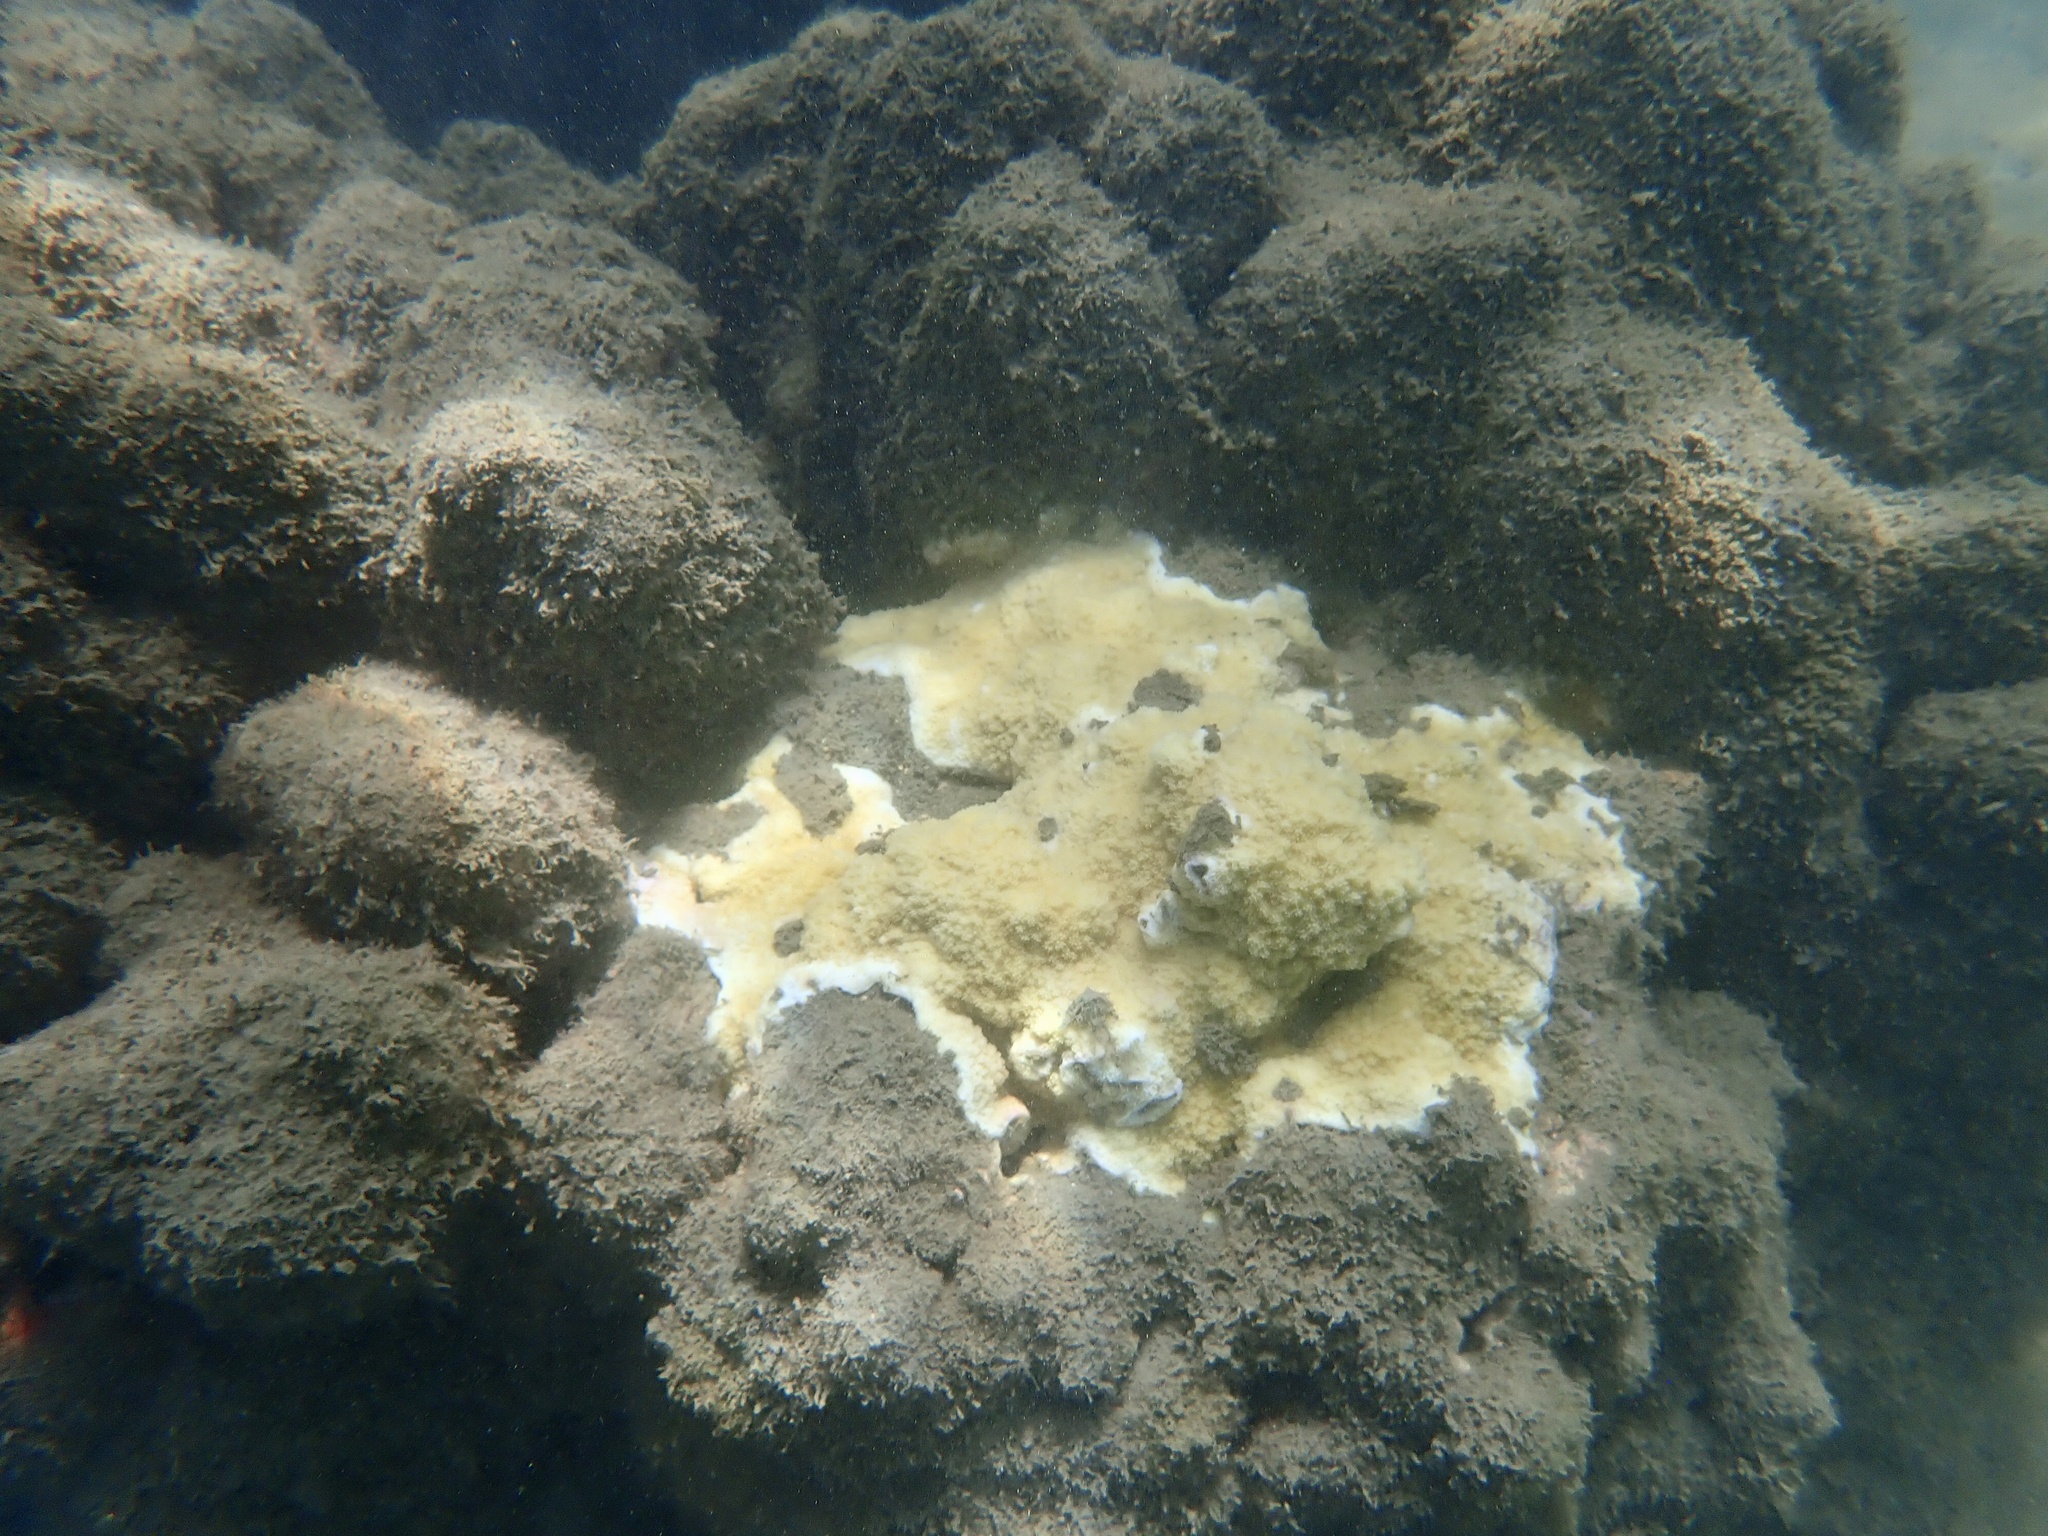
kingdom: Animalia
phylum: Cnidaria
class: Anthozoa
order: Scleractinia
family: Acroporidae
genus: Montipora
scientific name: Montipora patula
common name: Pore coral
